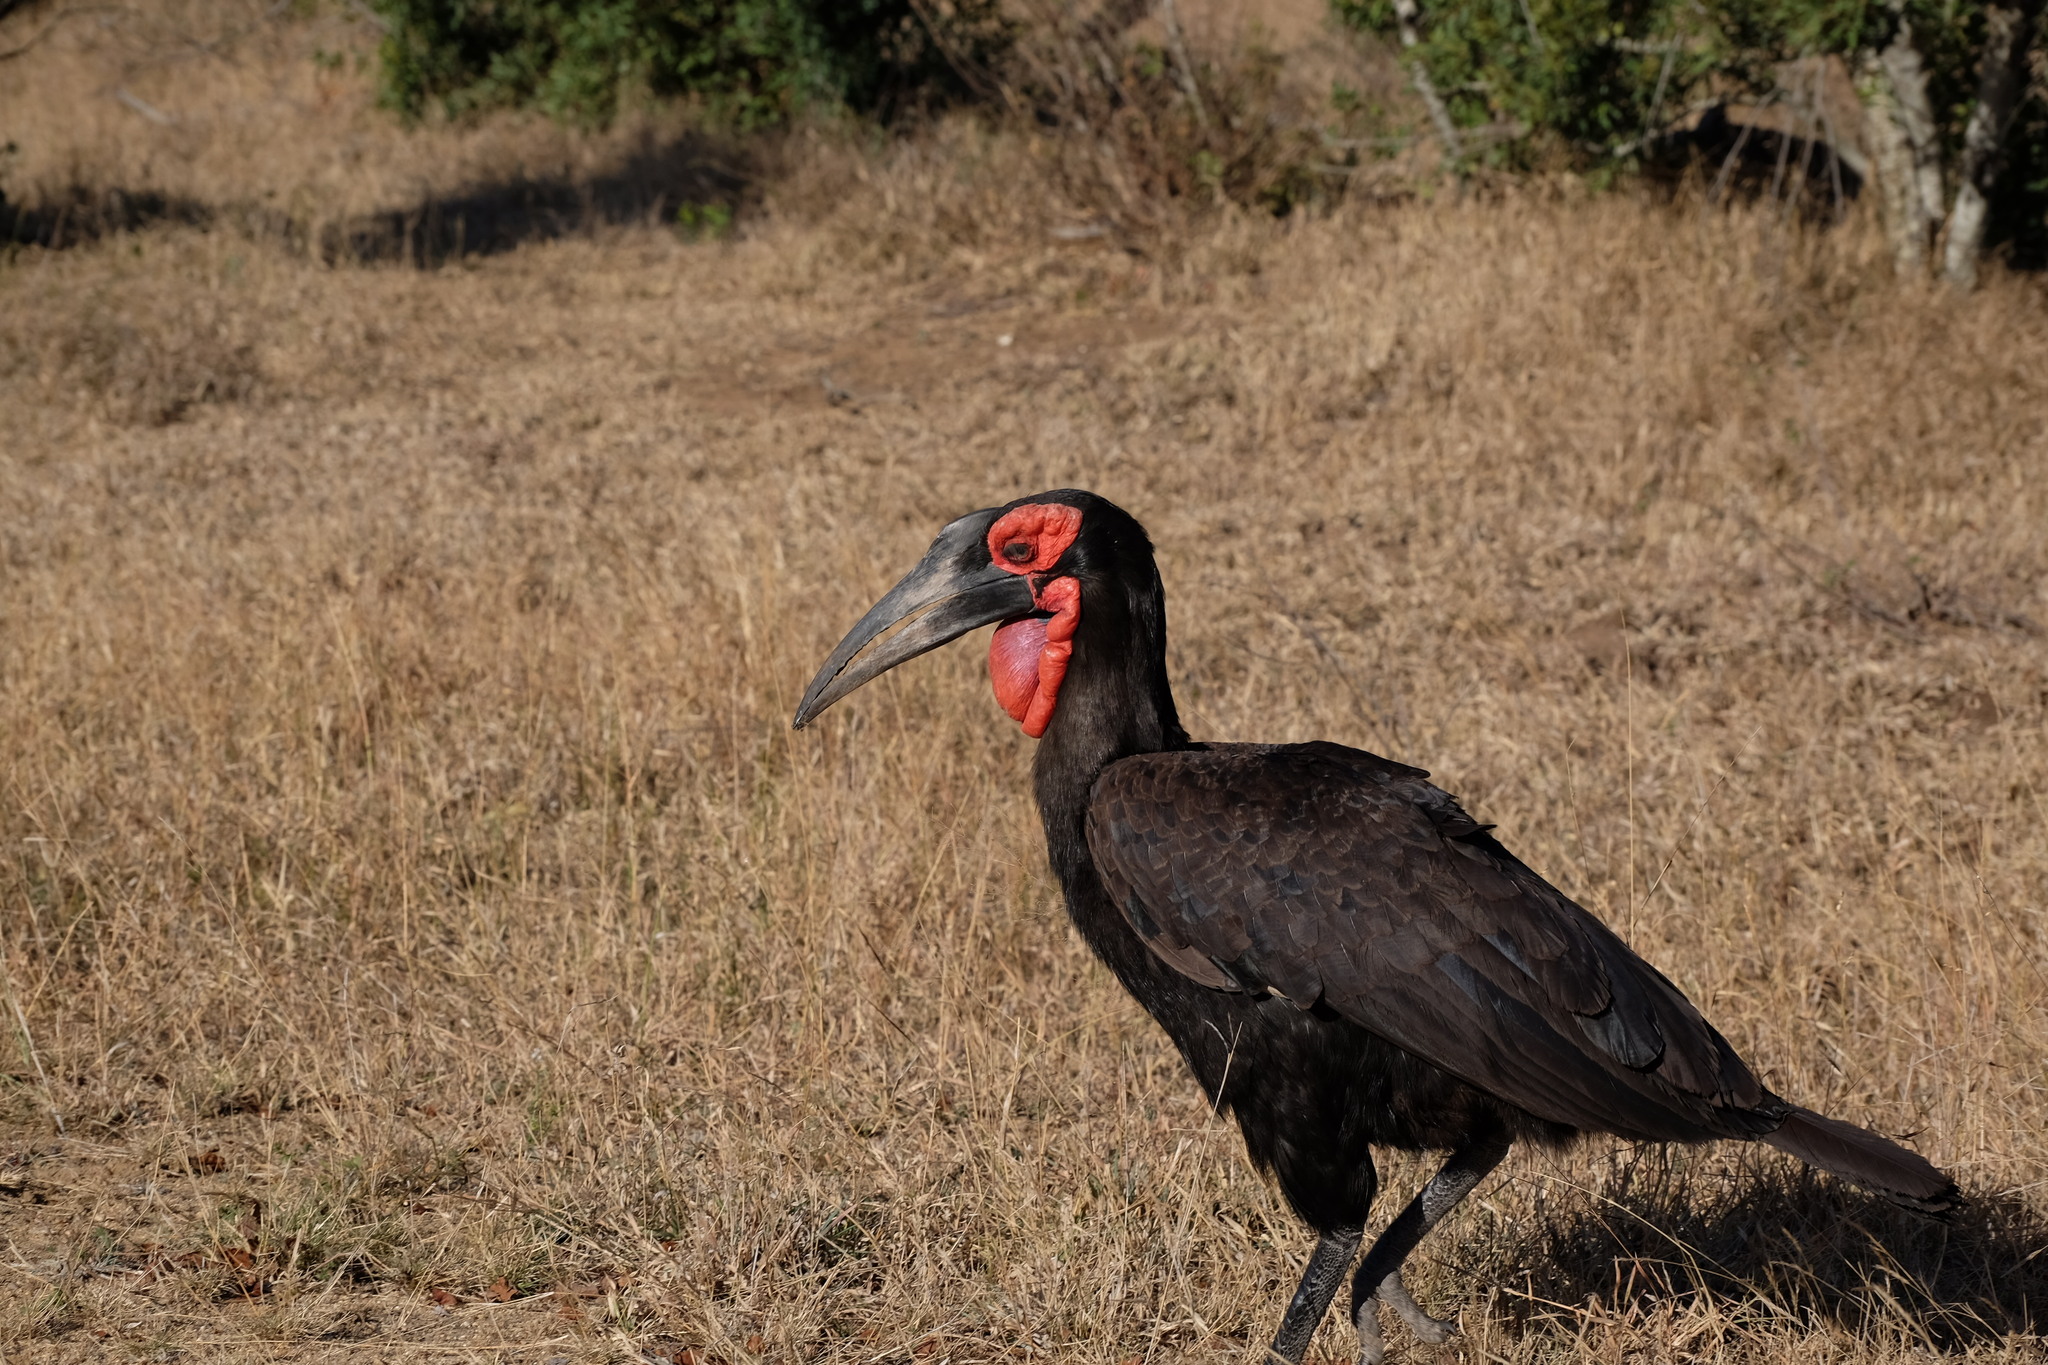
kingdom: Animalia
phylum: Chordata
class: Aves
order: Bucerotiformes
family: Bucorvidae
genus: Bucorvus
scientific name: Bucorvus leadbeateri
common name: Southern ground-hornbill
